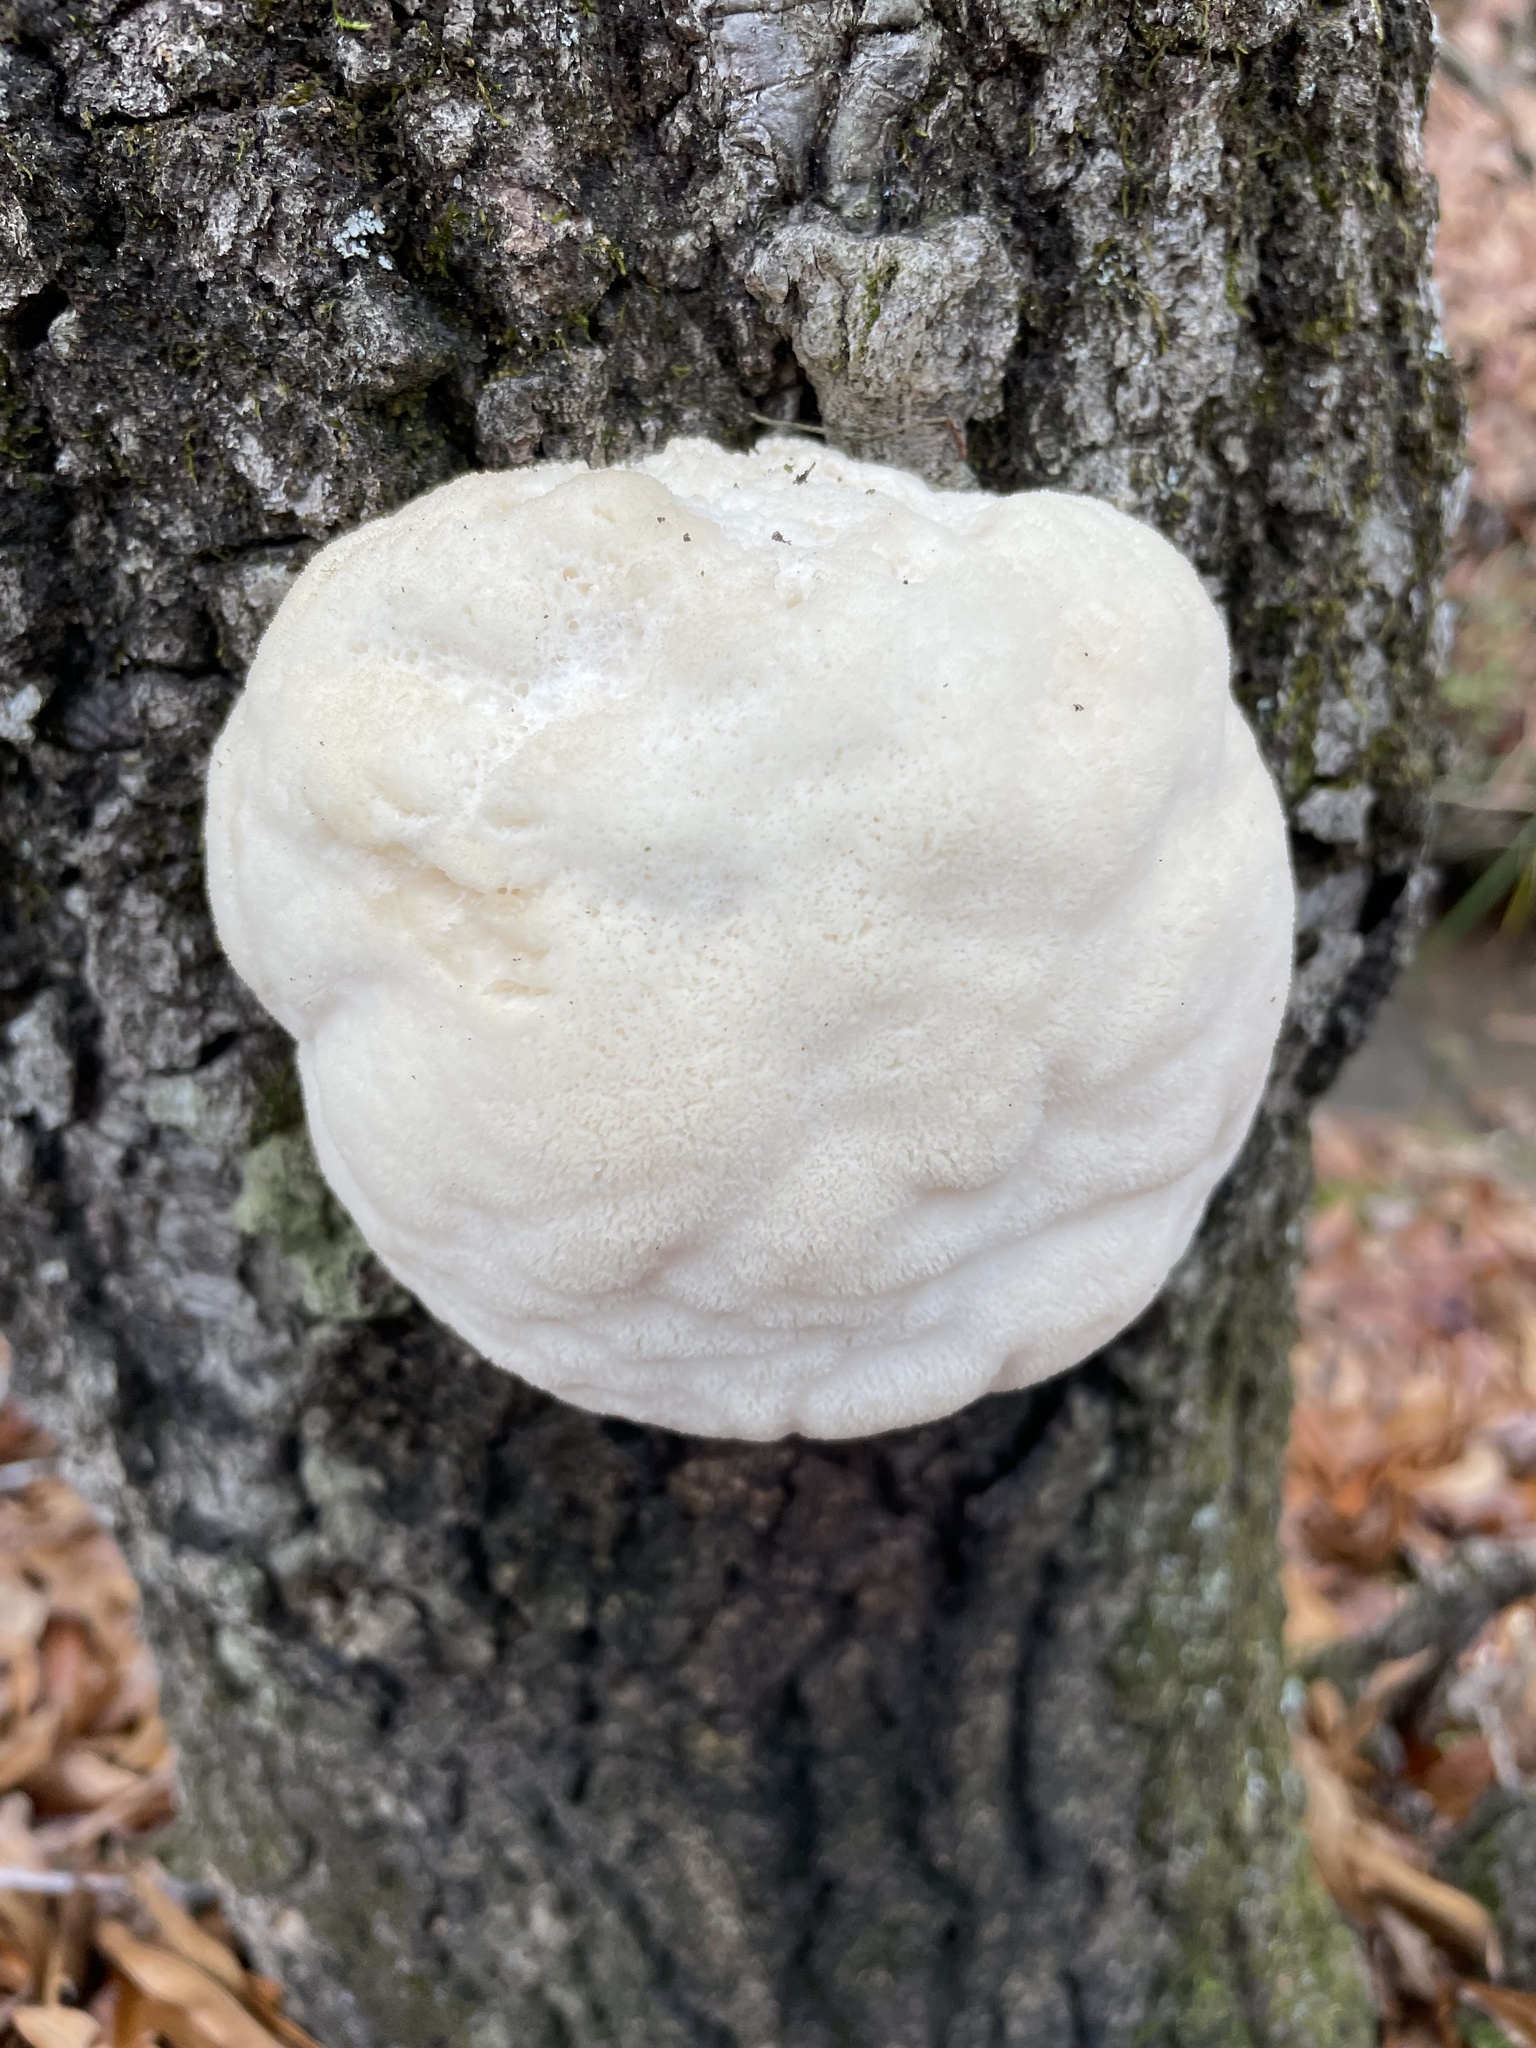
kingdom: Fungi
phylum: Basidiomycota
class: Agaricomycetes
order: Russulales
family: Hericiaceae
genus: Hericium
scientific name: Hericium erinaceus
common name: Bearded tooth
